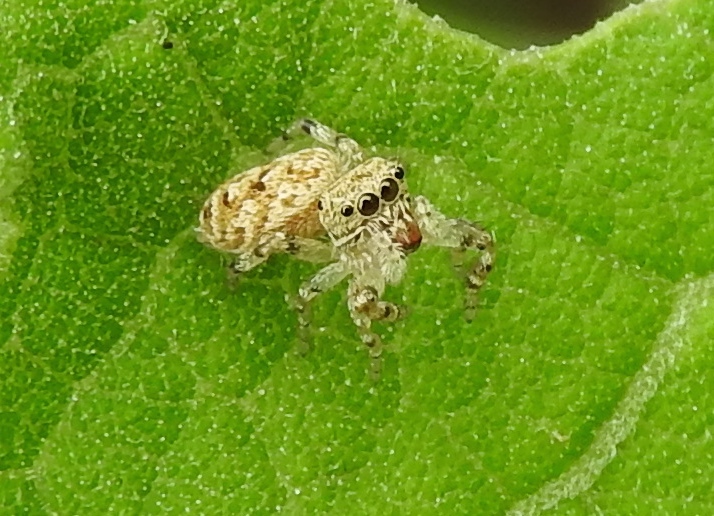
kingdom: Animalia
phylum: Arthropoda
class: Arachnida
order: Araneae
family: Salticidae
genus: Pelegrina
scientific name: Pelegrina
